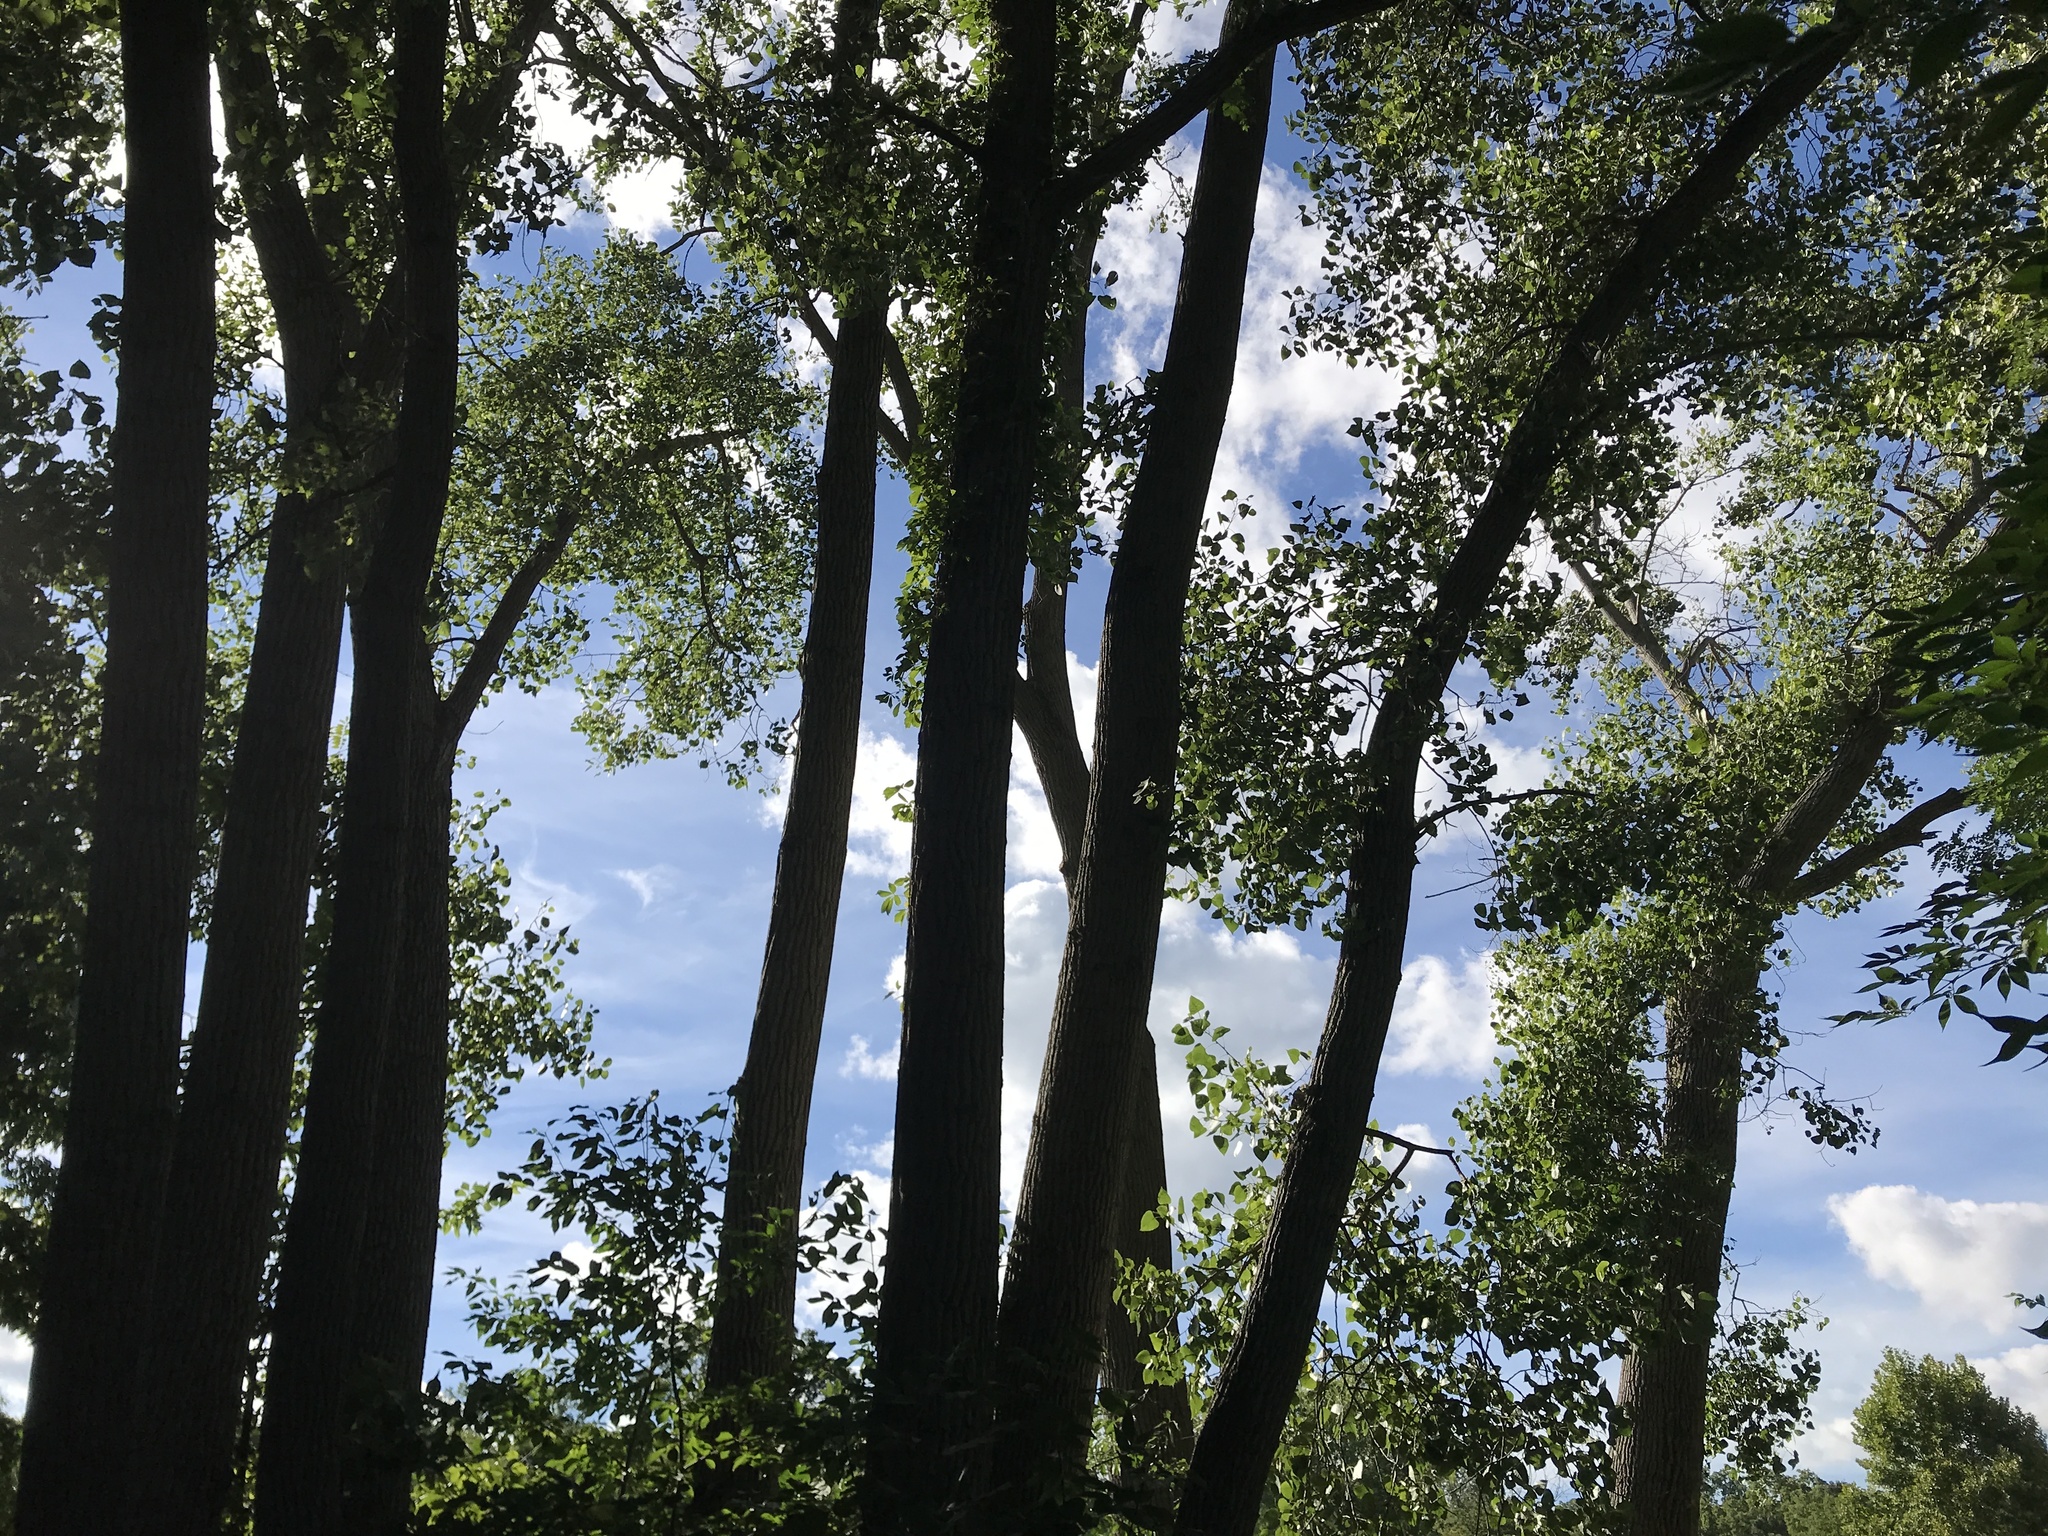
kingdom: Plantae
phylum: Tracheophyta
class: Magnoliopsida
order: Malpighiales
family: Salicaceae
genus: Populus
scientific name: Populus deltoides
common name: Eastern cottonwood
